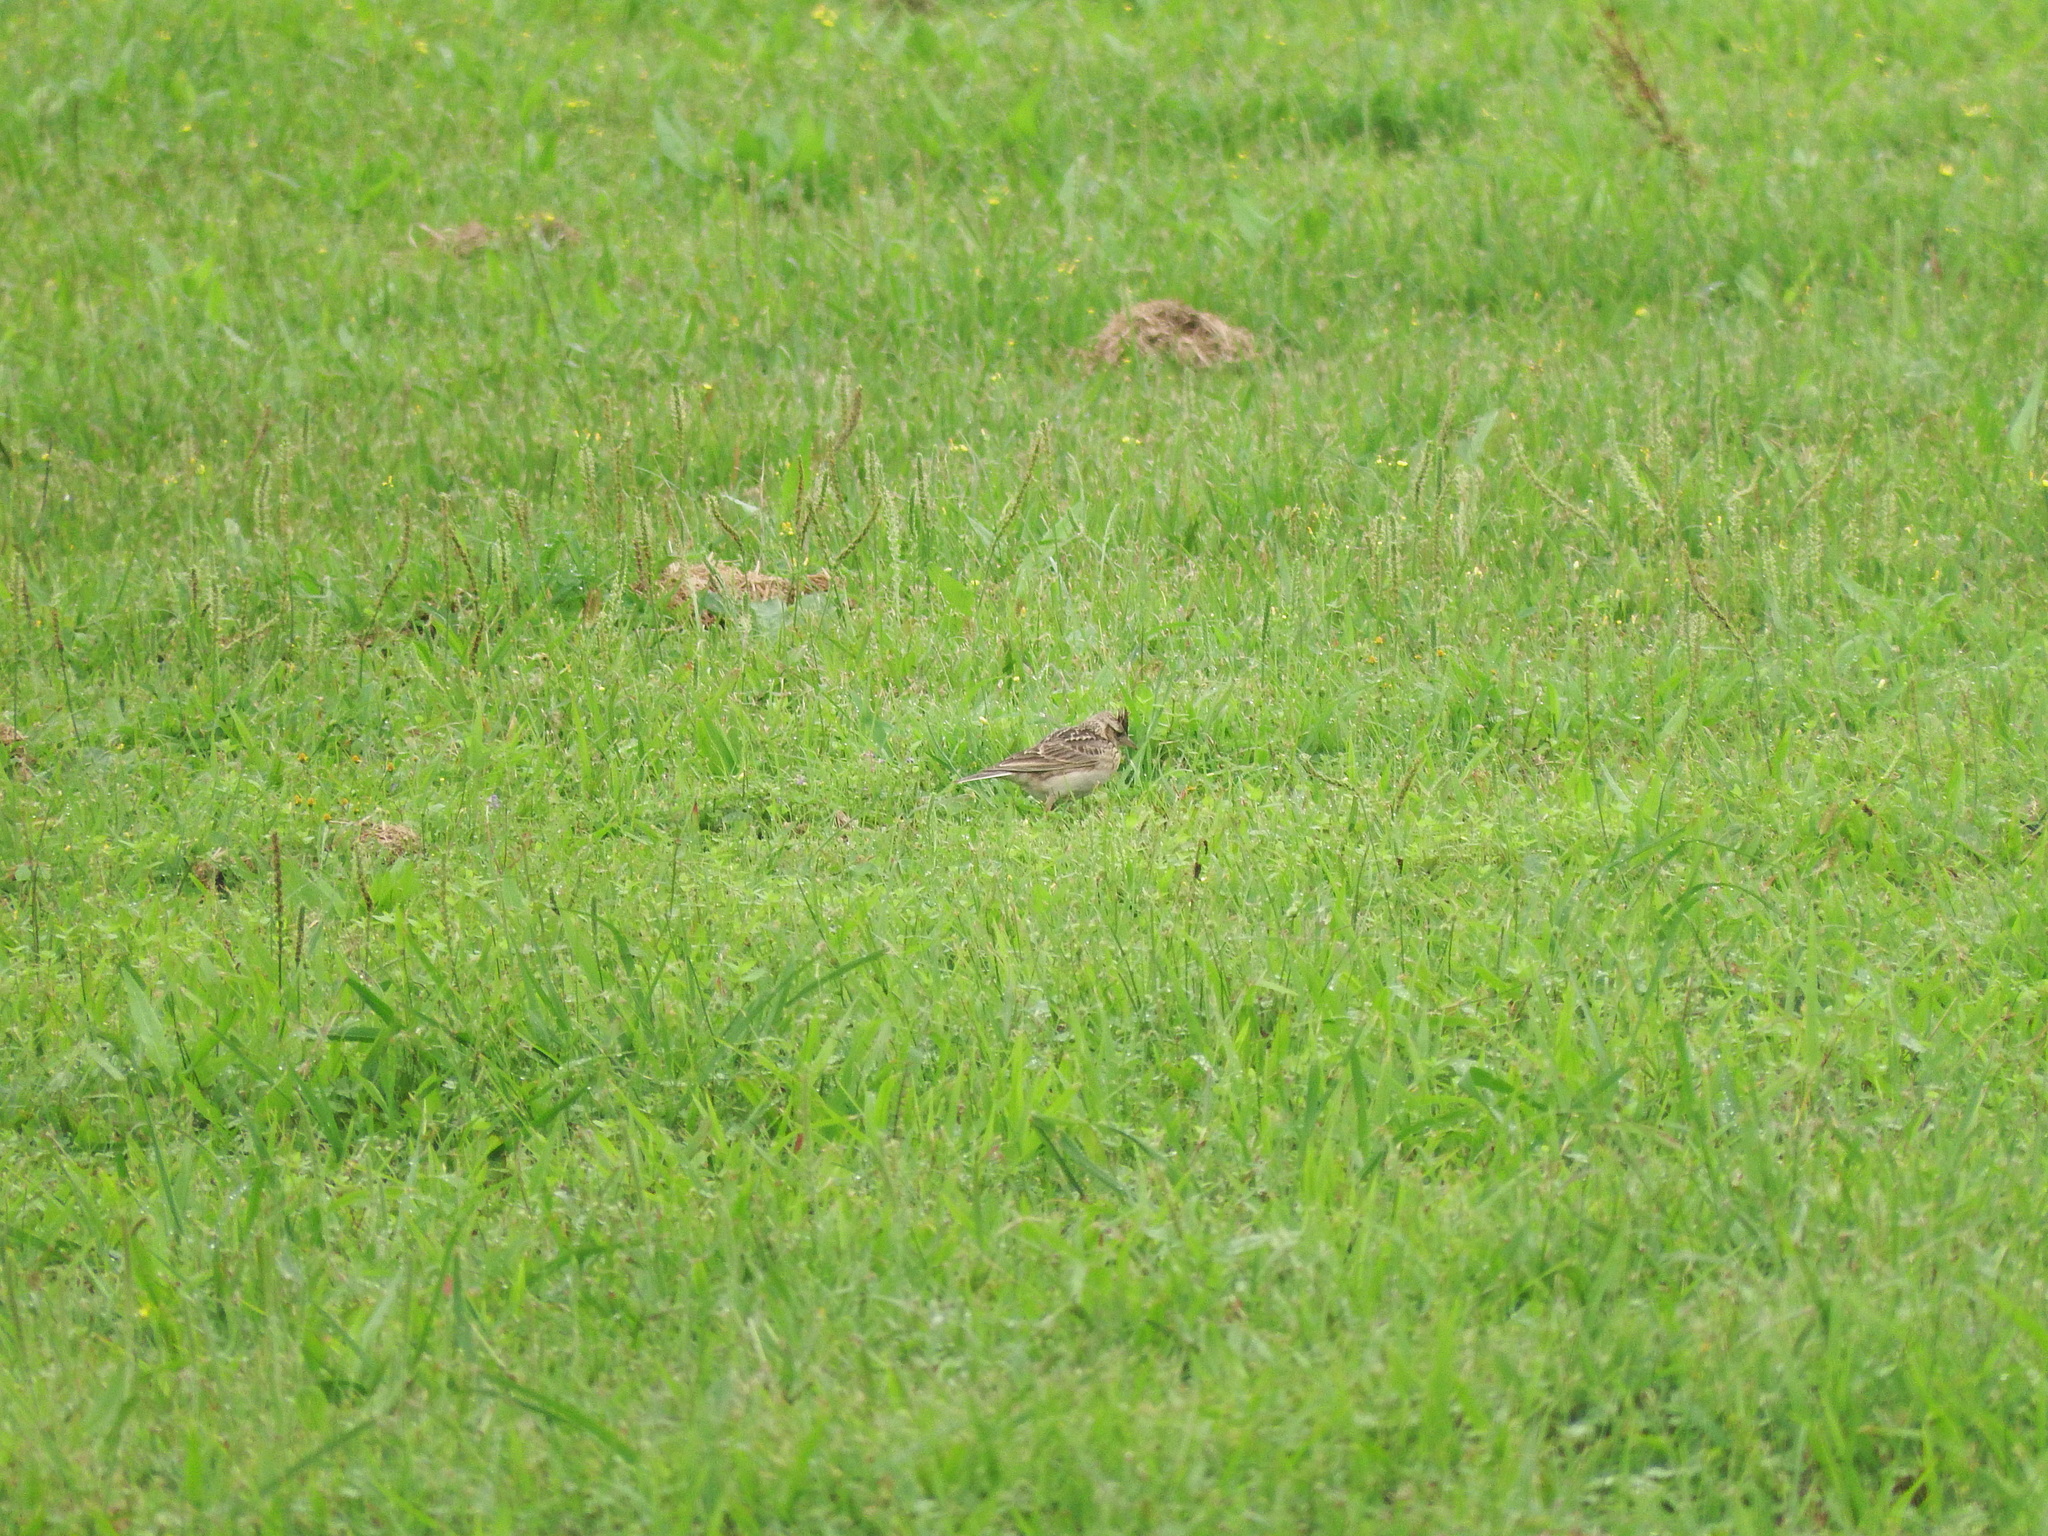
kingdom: Animalia
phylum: Chordata
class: Aves
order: Passeriformes
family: Alaudidae
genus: Alauda
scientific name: Alauda gulgula
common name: Oriental skylark
